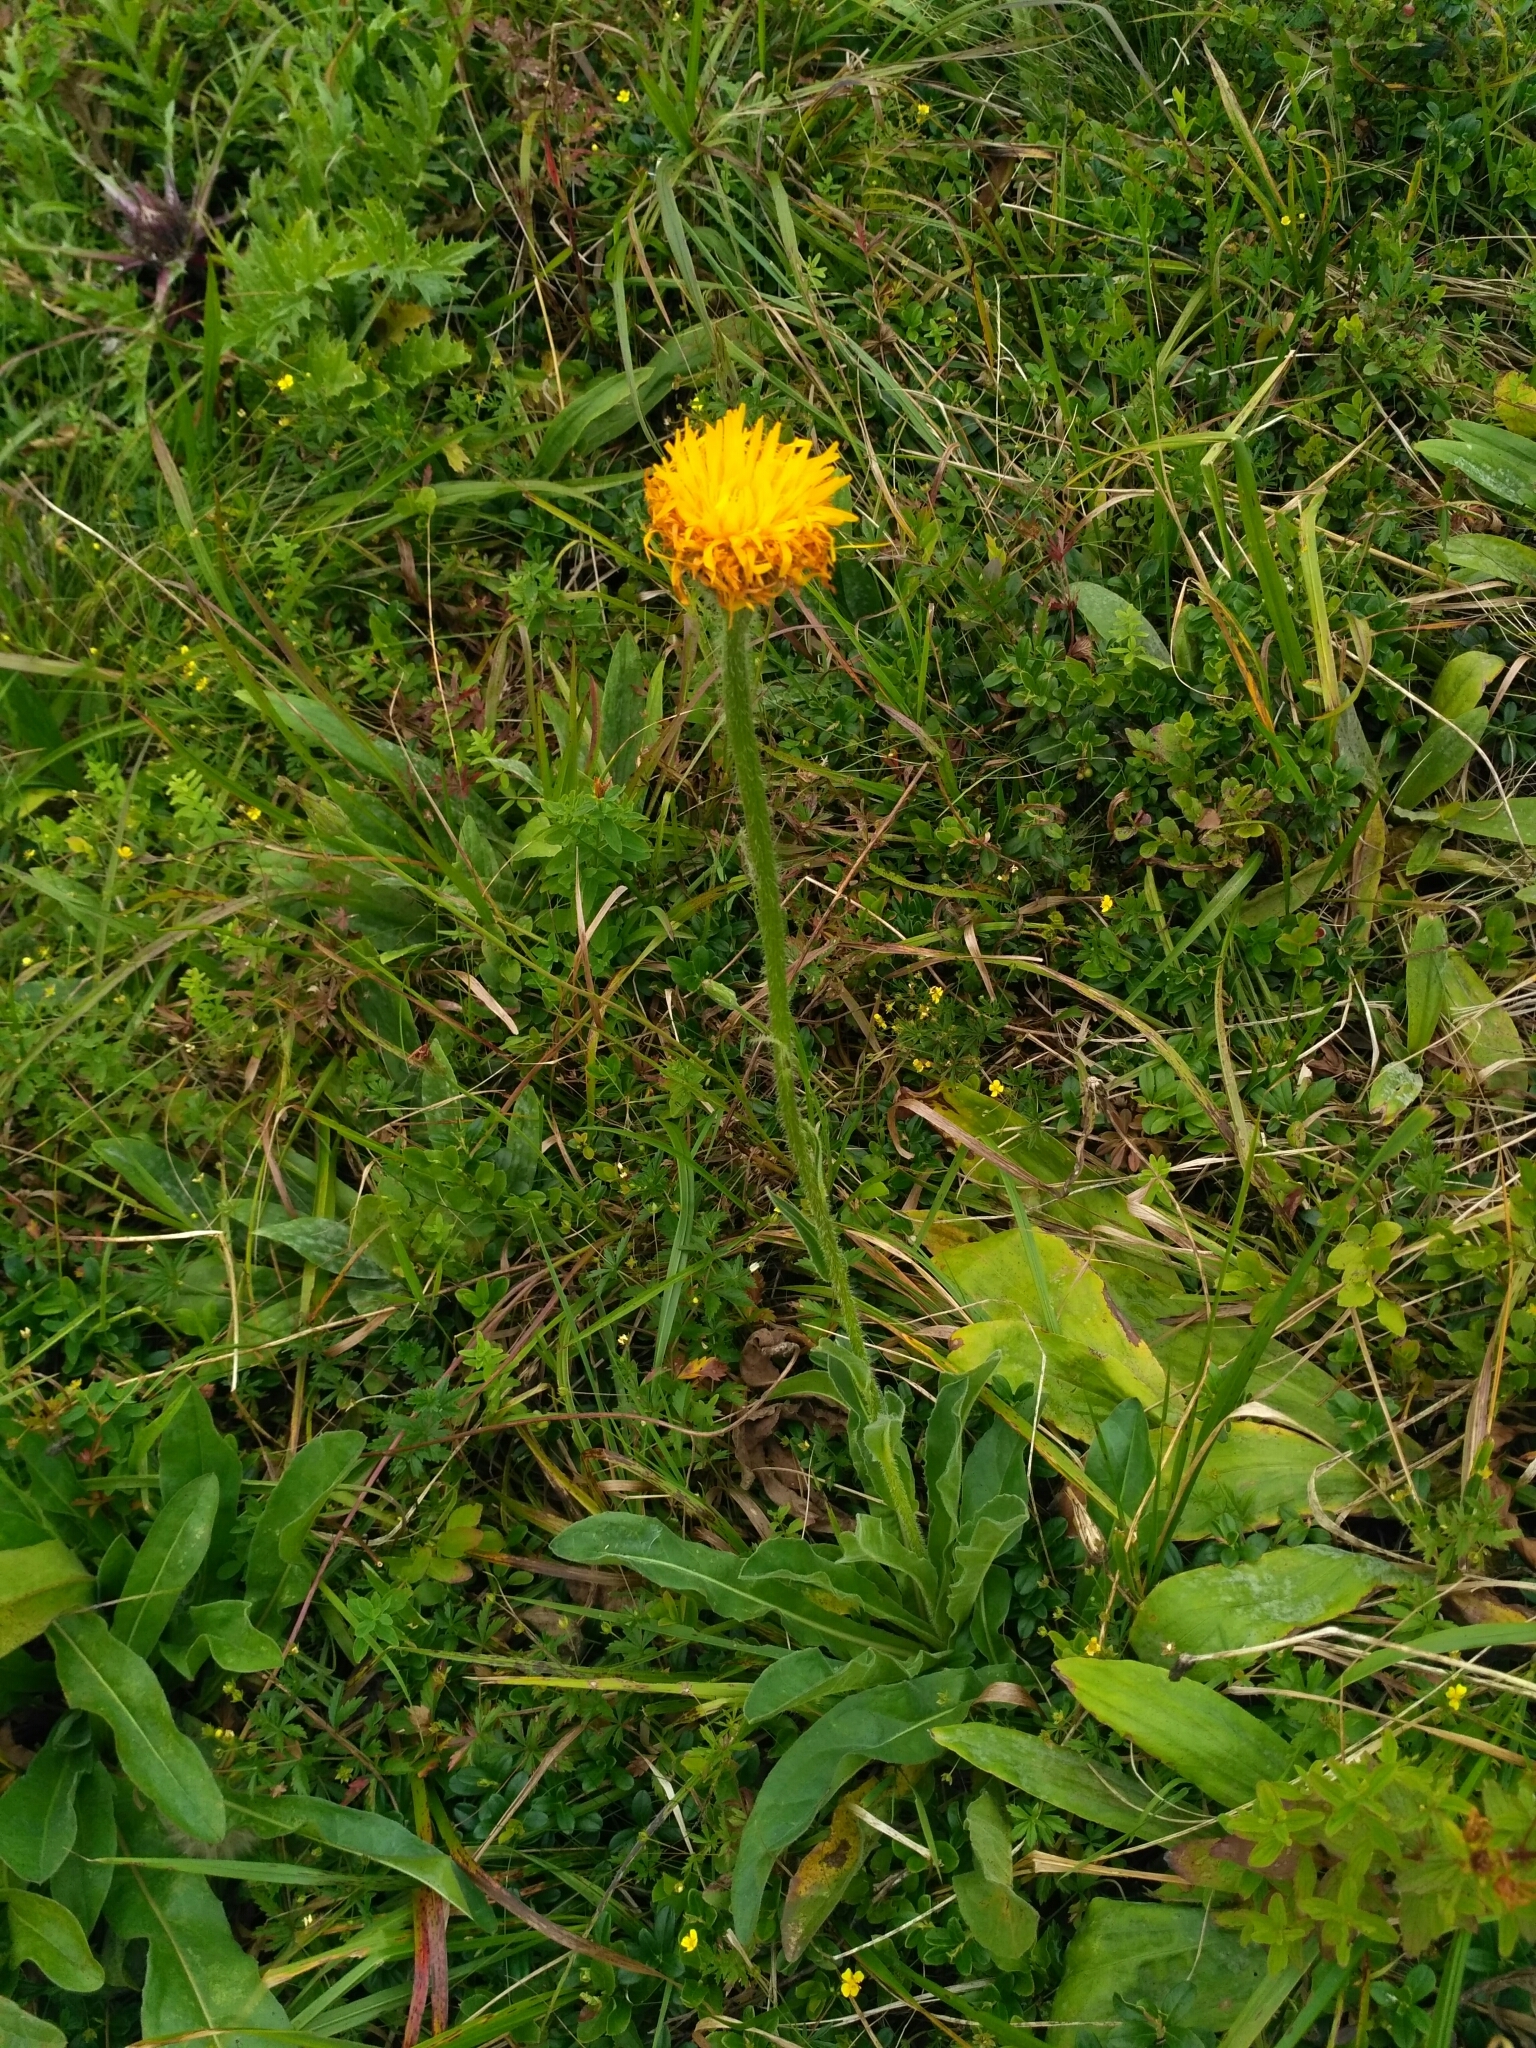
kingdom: Plantae
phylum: Tracheophyta
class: Magnoliopsida
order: Asterales
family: Asteraceae
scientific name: Asteraceae
